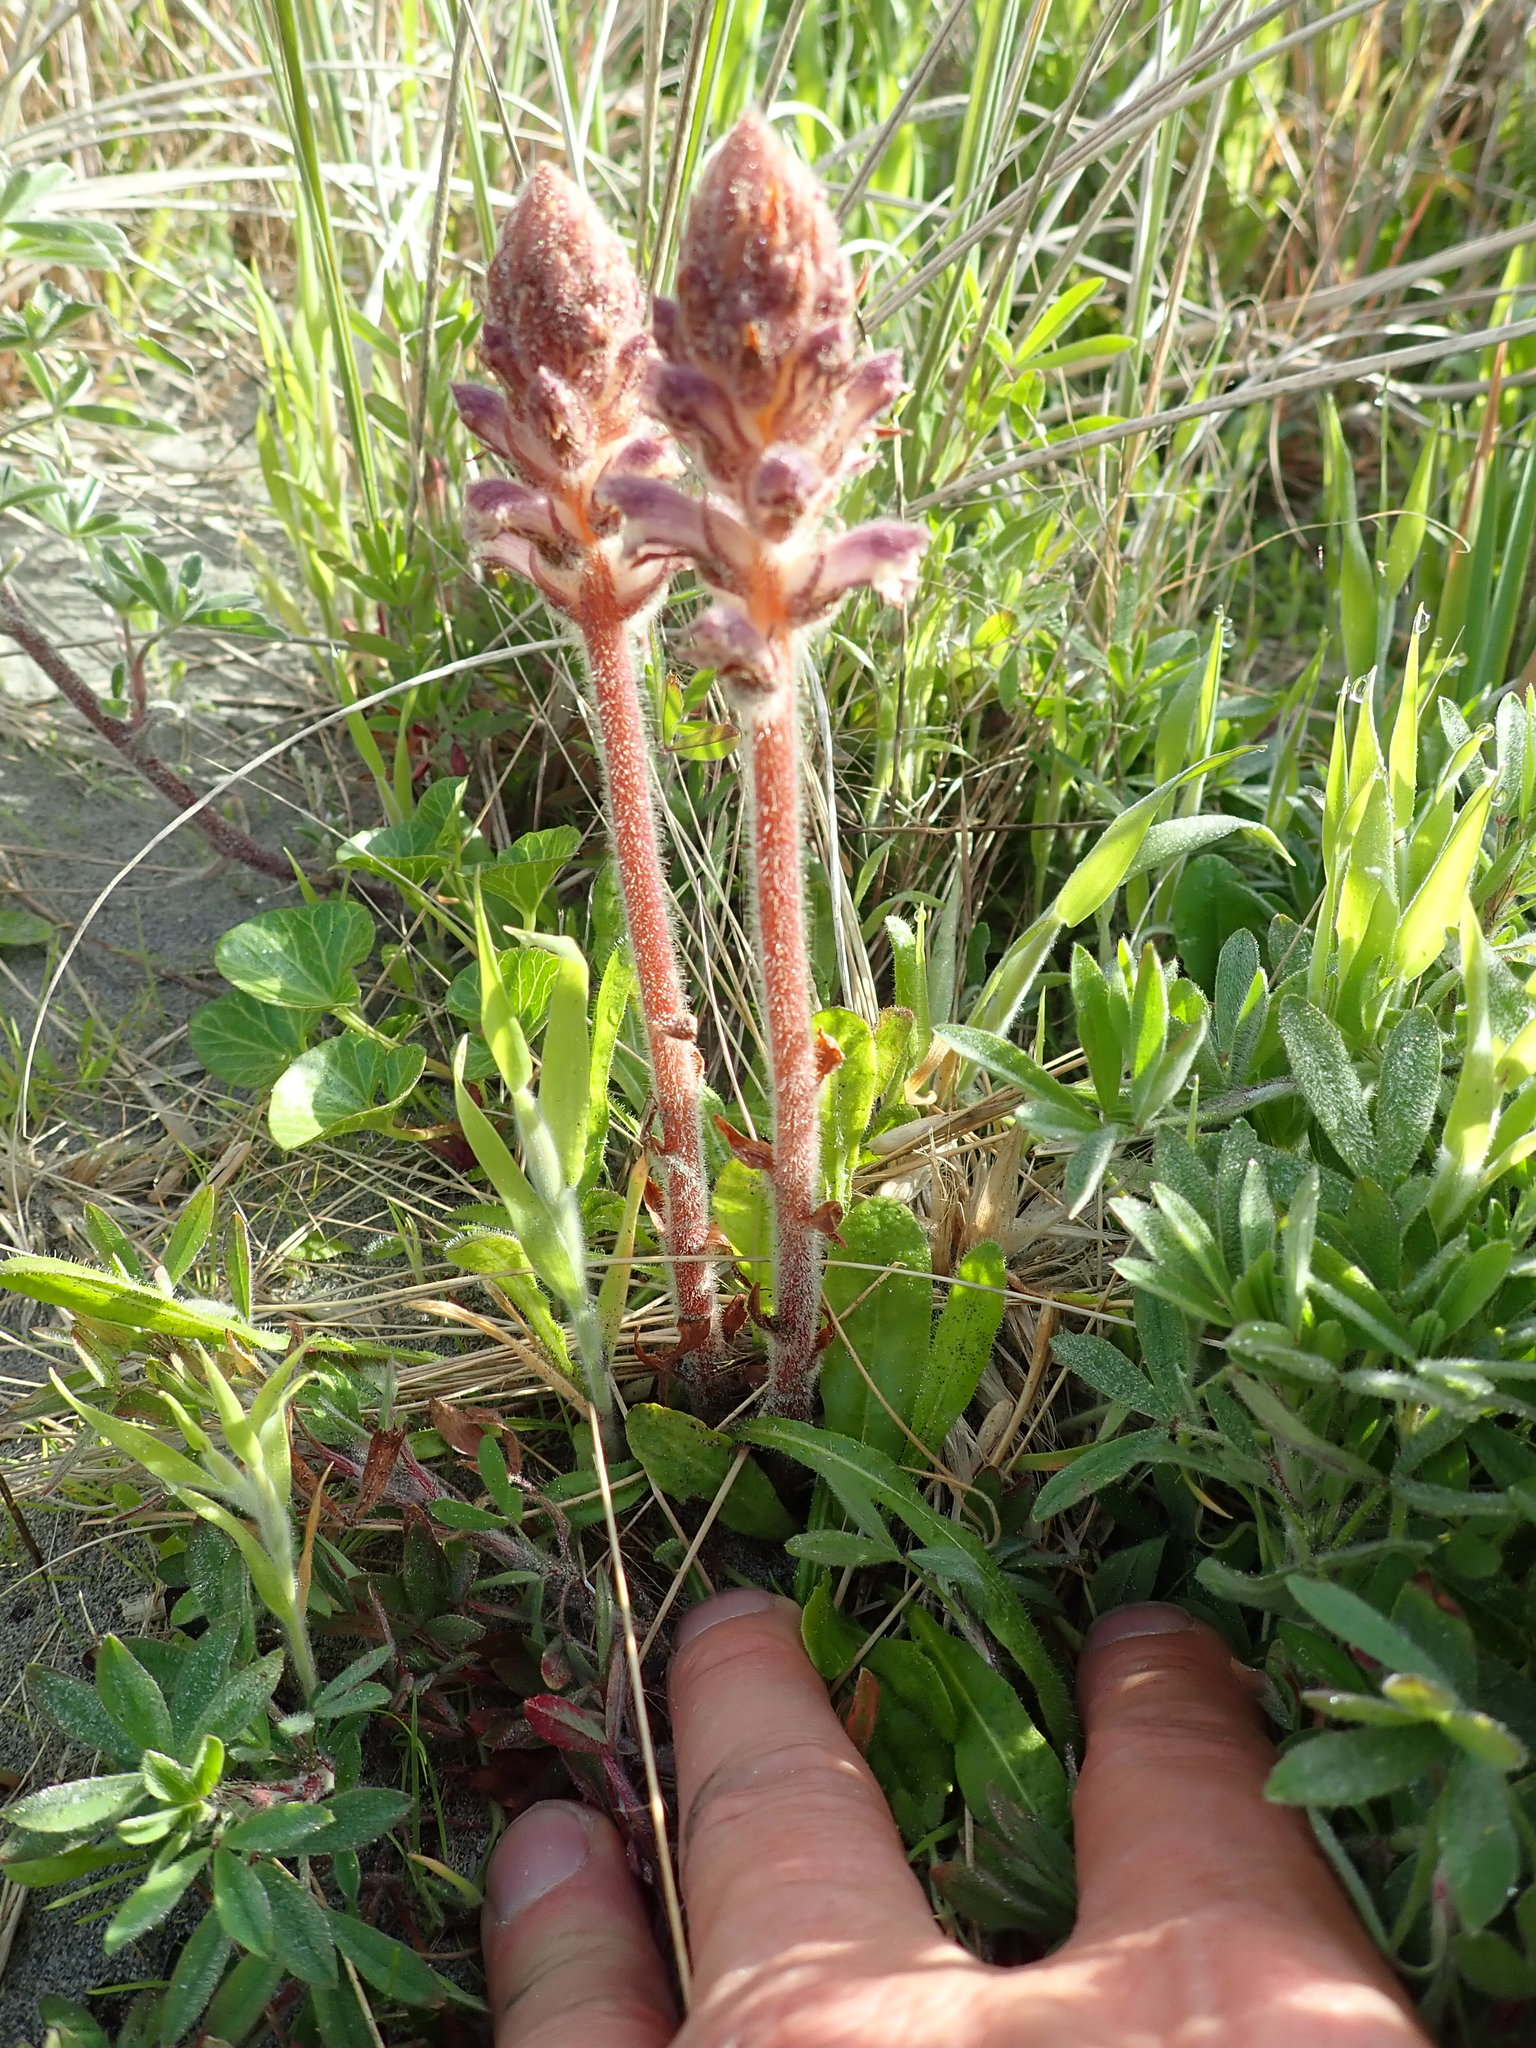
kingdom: Plantae
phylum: Tracheophyta
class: Magnoliopsida
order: Lamiales
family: Orobanchaceae
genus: Orobanche
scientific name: Orobanche minor
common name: Common broomrape
